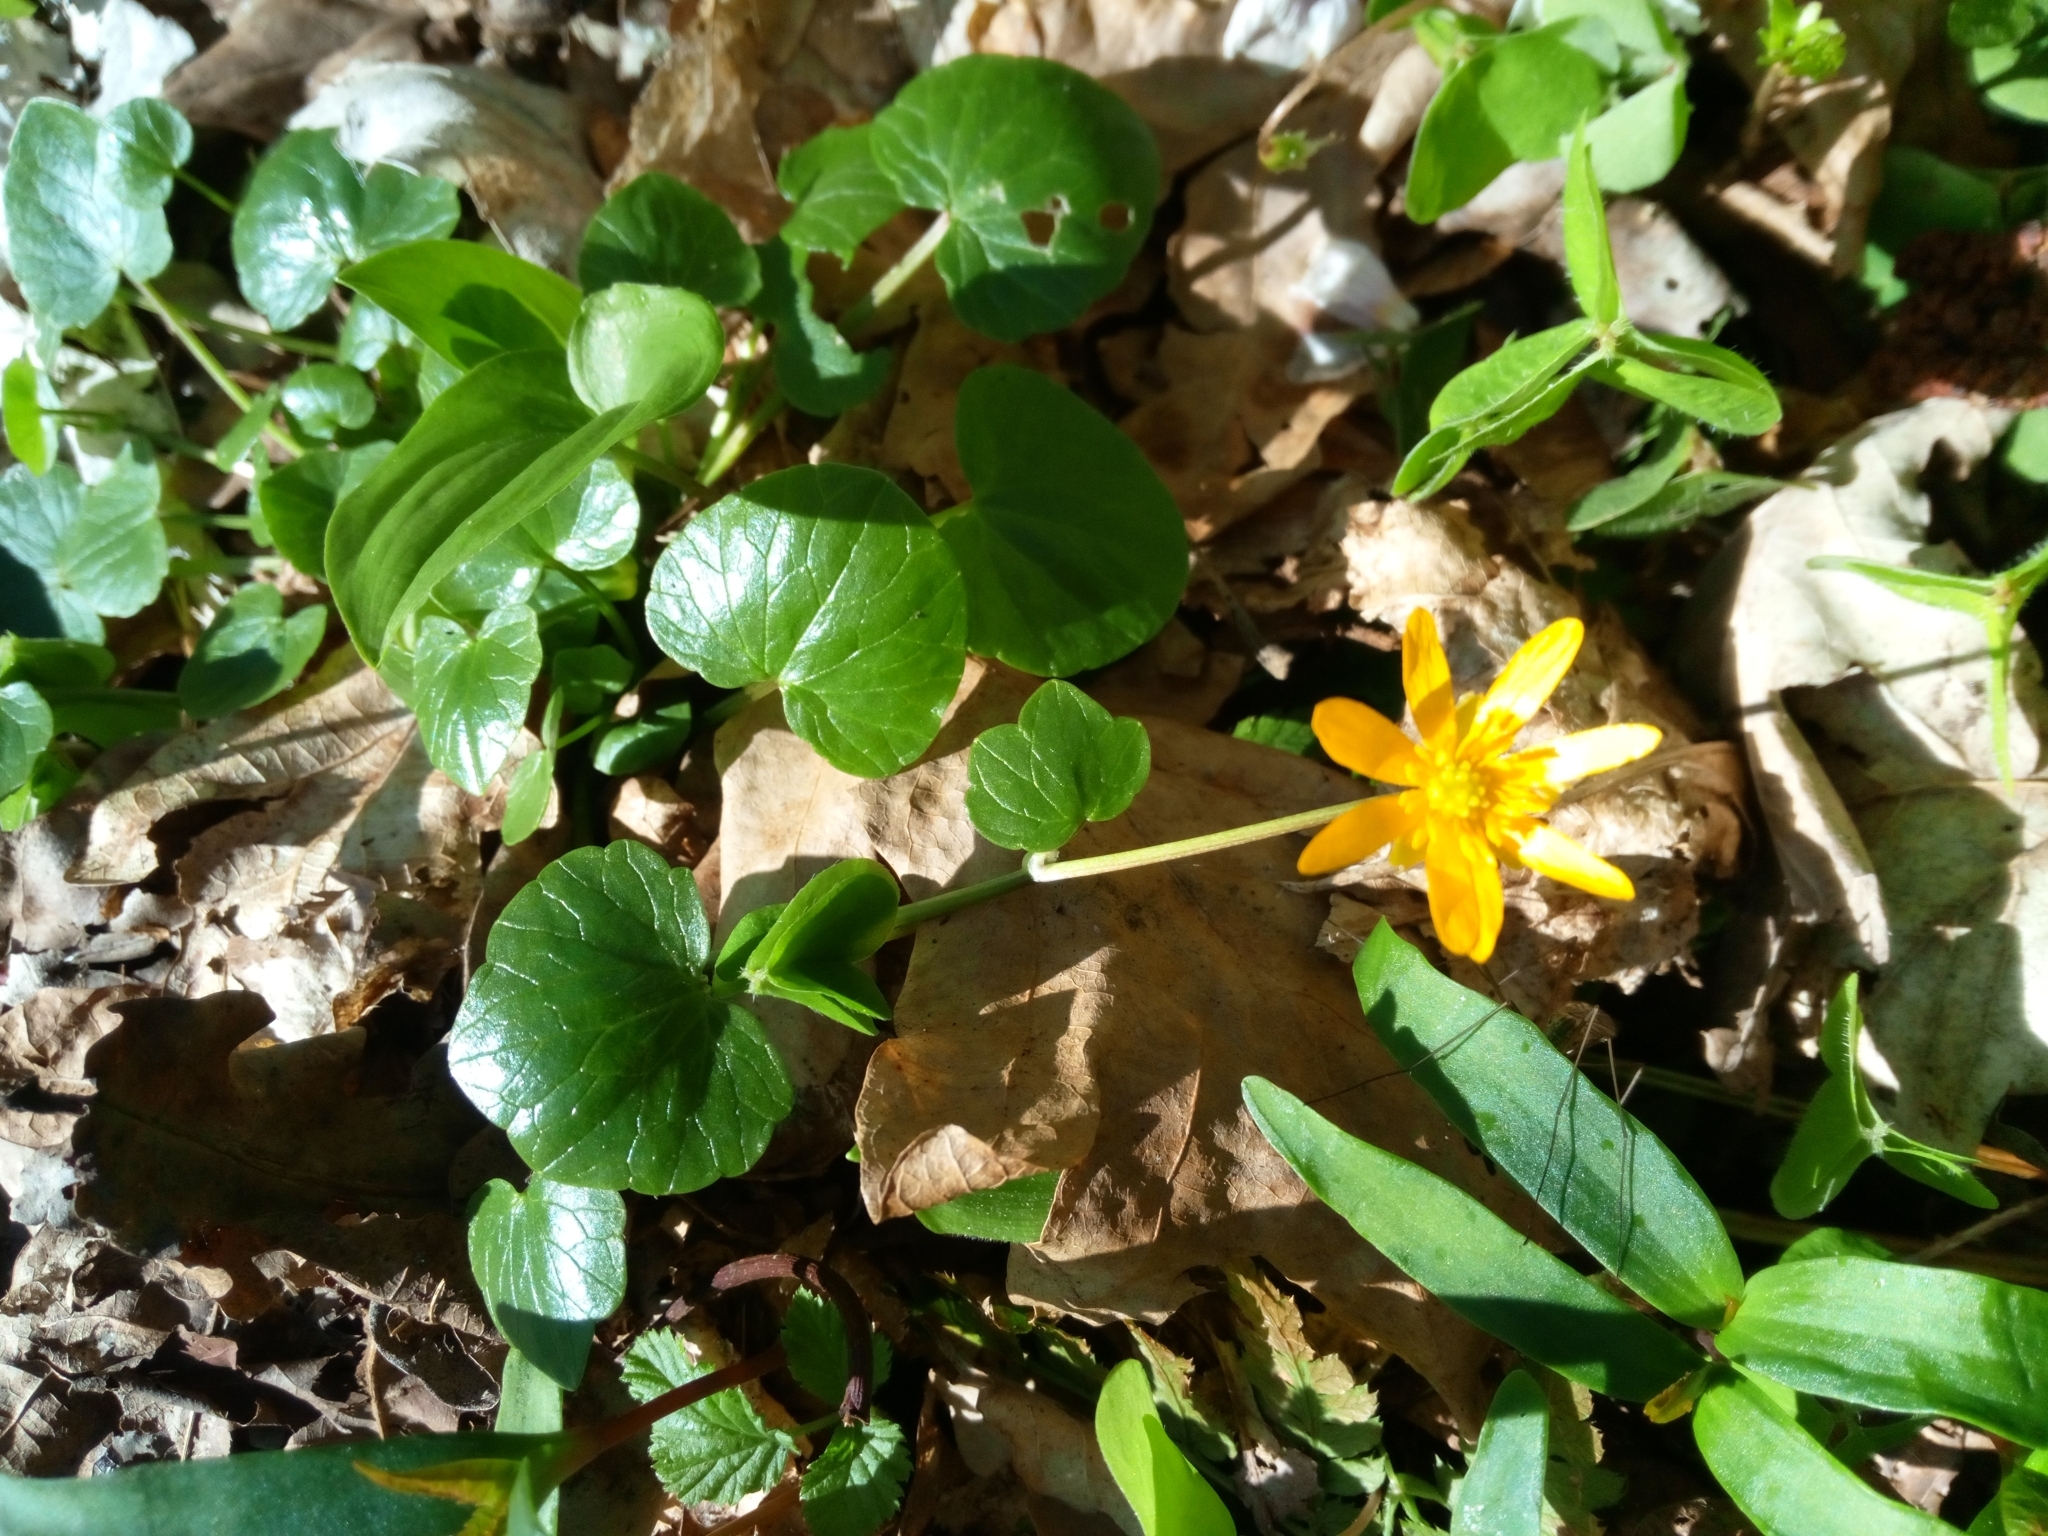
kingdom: Plantae
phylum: Tracheophyta
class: Magnoliopsida
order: Ranunculales
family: Ranunculaceae
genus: Ficaria
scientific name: Ficaria verna
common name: Lesser celandine
